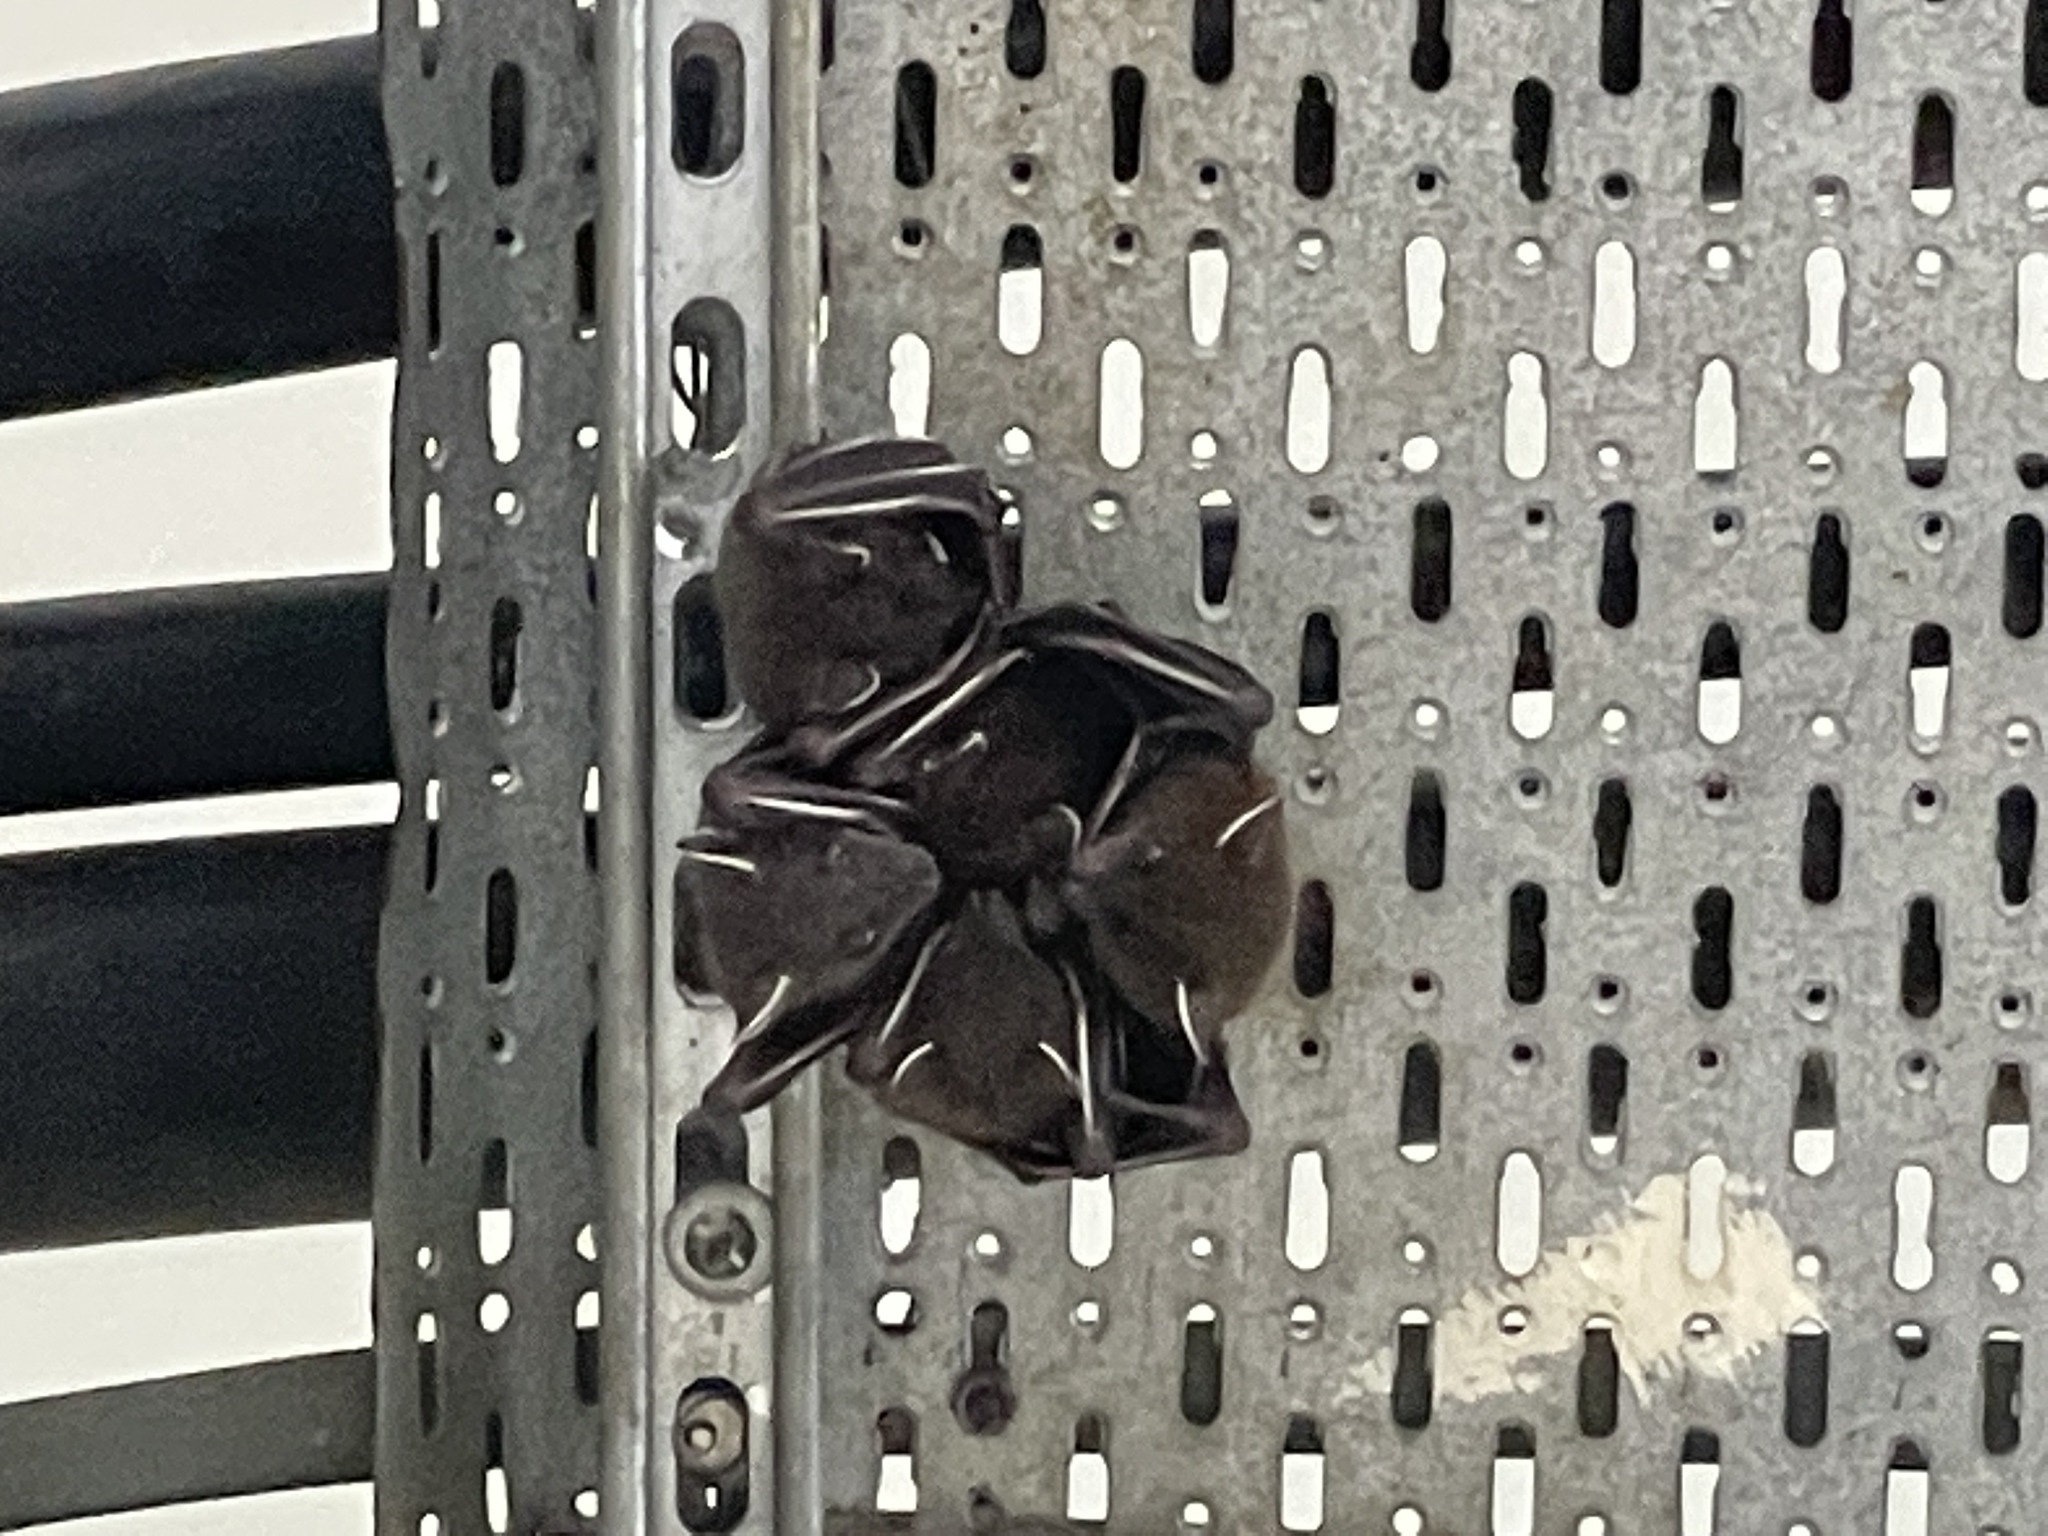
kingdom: Animalia
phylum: Chordata
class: Mammalia
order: Chiroptera
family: Pteropodidae
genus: Cynopterus
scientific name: Cynopterus sphinx
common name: Greater short-nosed fruit bat
